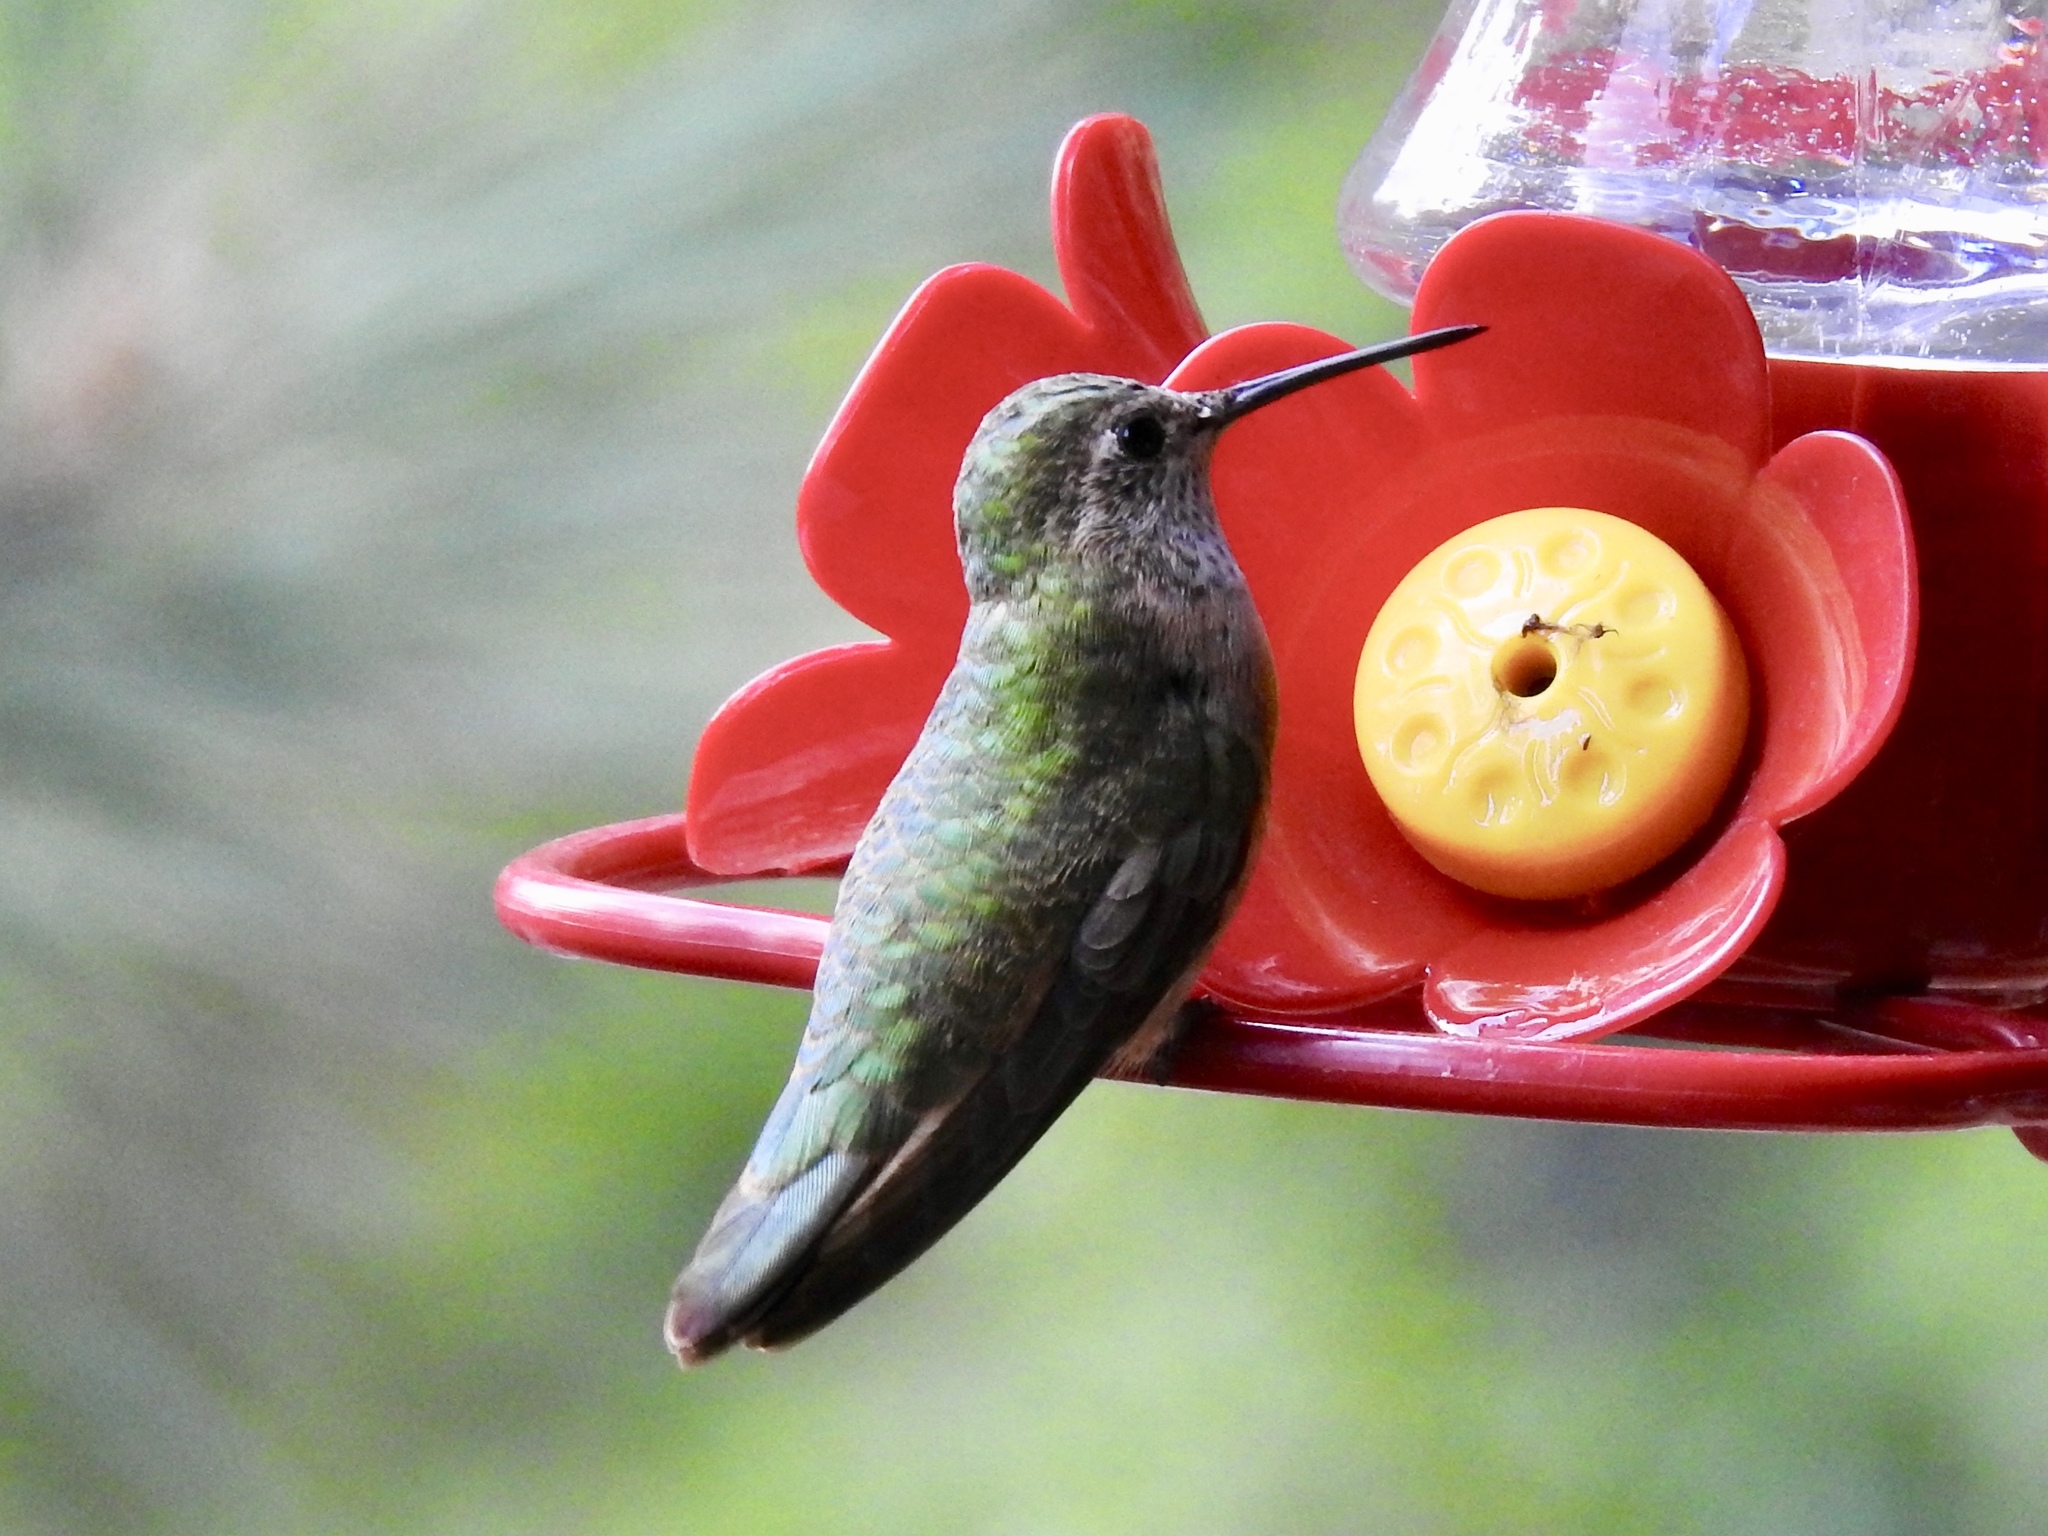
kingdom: Animalia
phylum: Chordata
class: Aves
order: Apodiformes
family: Trochilidae
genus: Selasphorus
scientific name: Selasphorus platycercus
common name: Broad-tailed hummingbird
